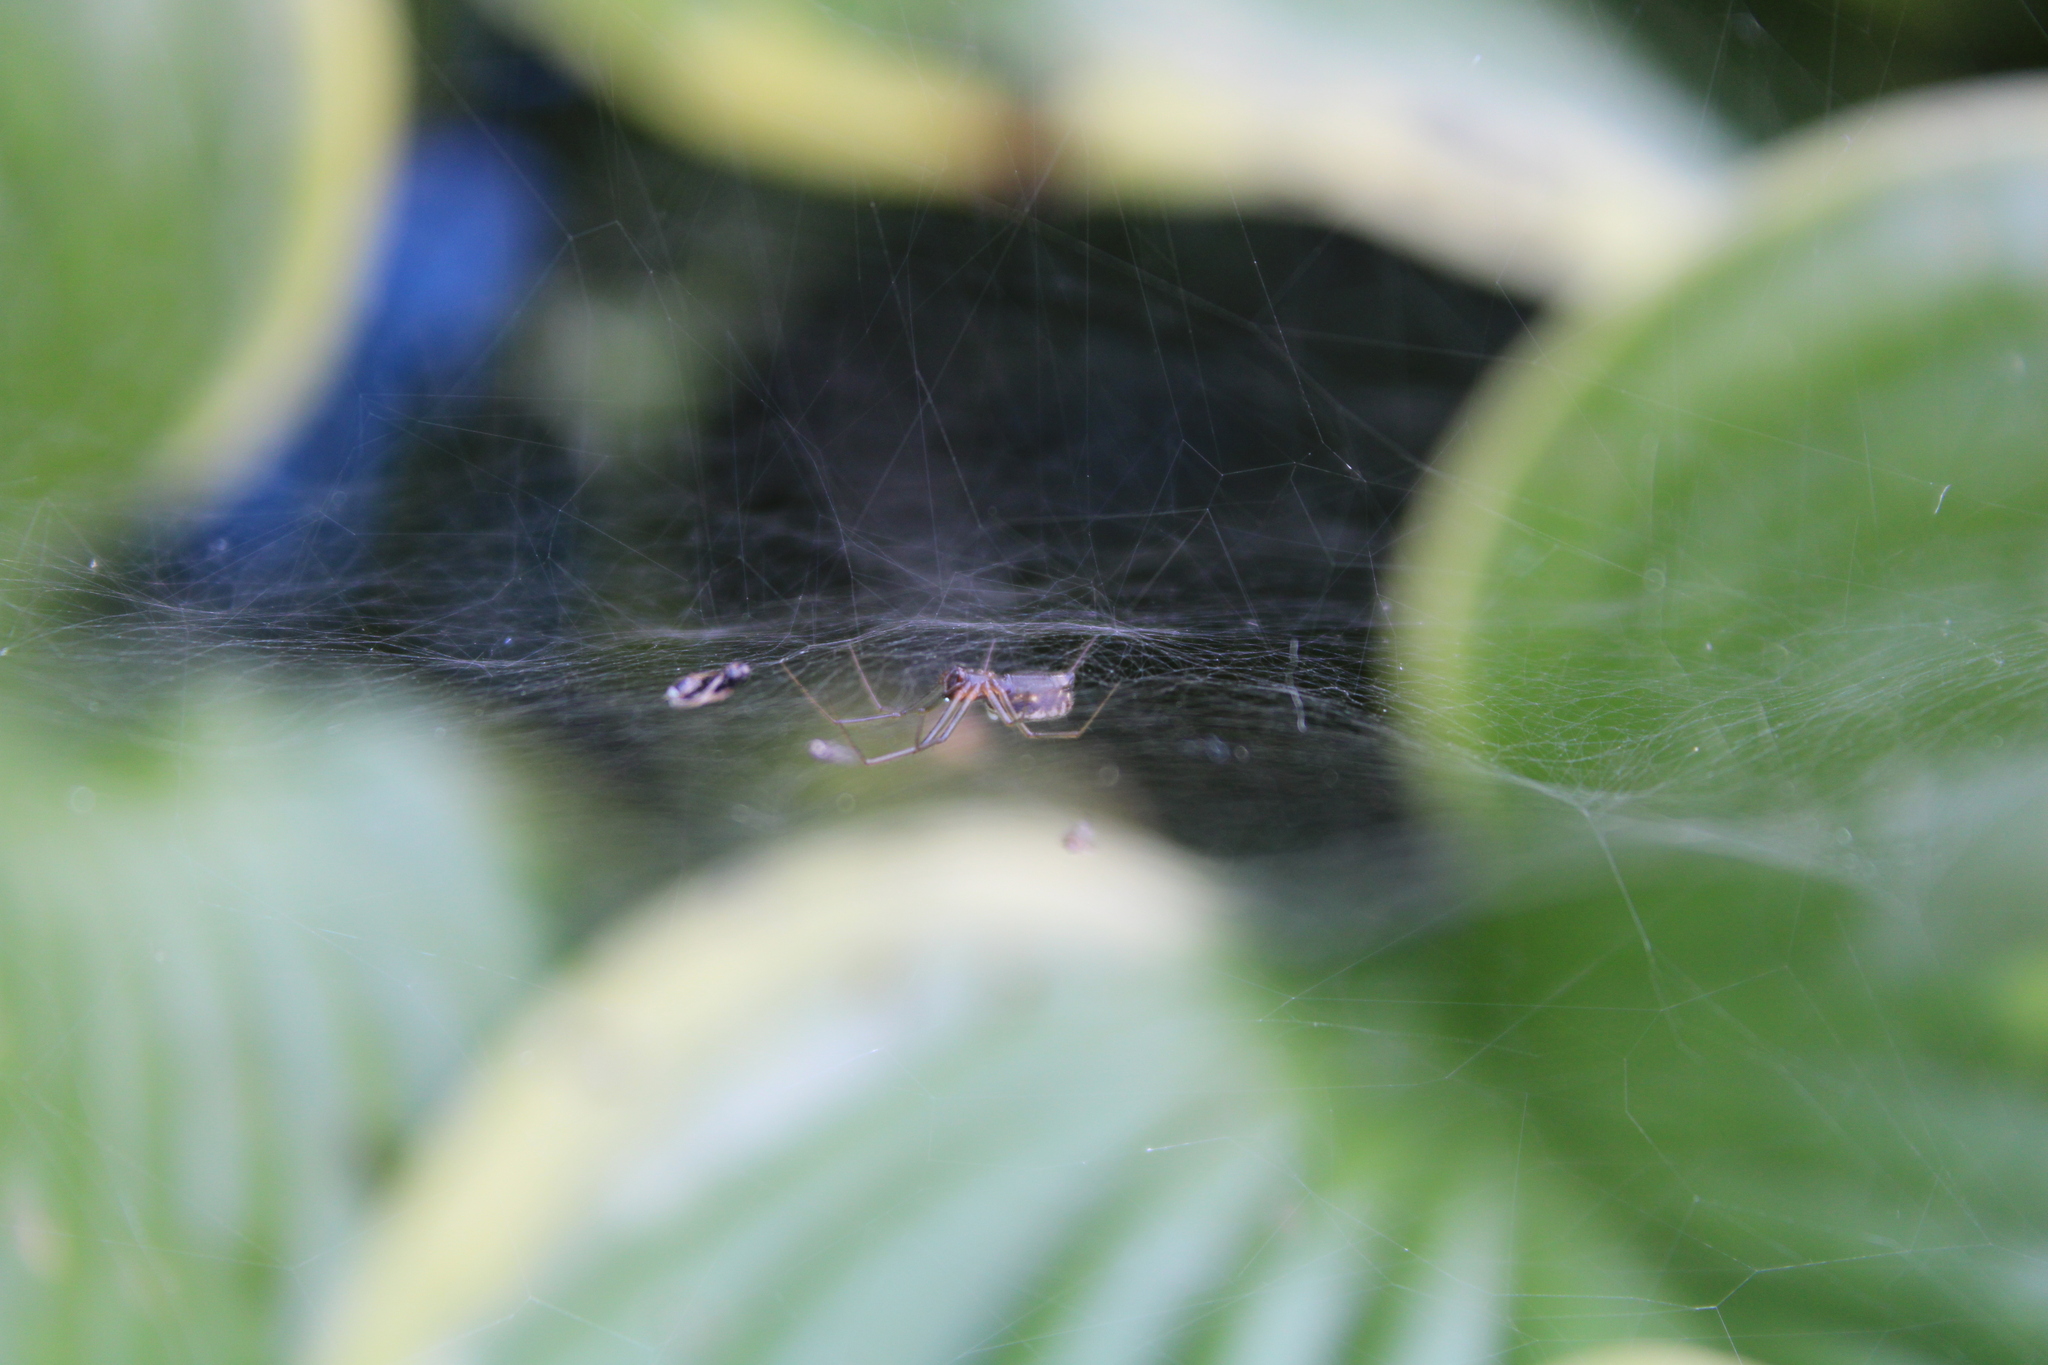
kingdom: Animalia
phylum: Arthropoda
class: Arachnida
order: Araneae
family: Linyphiidae
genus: Frontinella
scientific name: Frontinella pyramitela
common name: Bowl-and-doily spider
